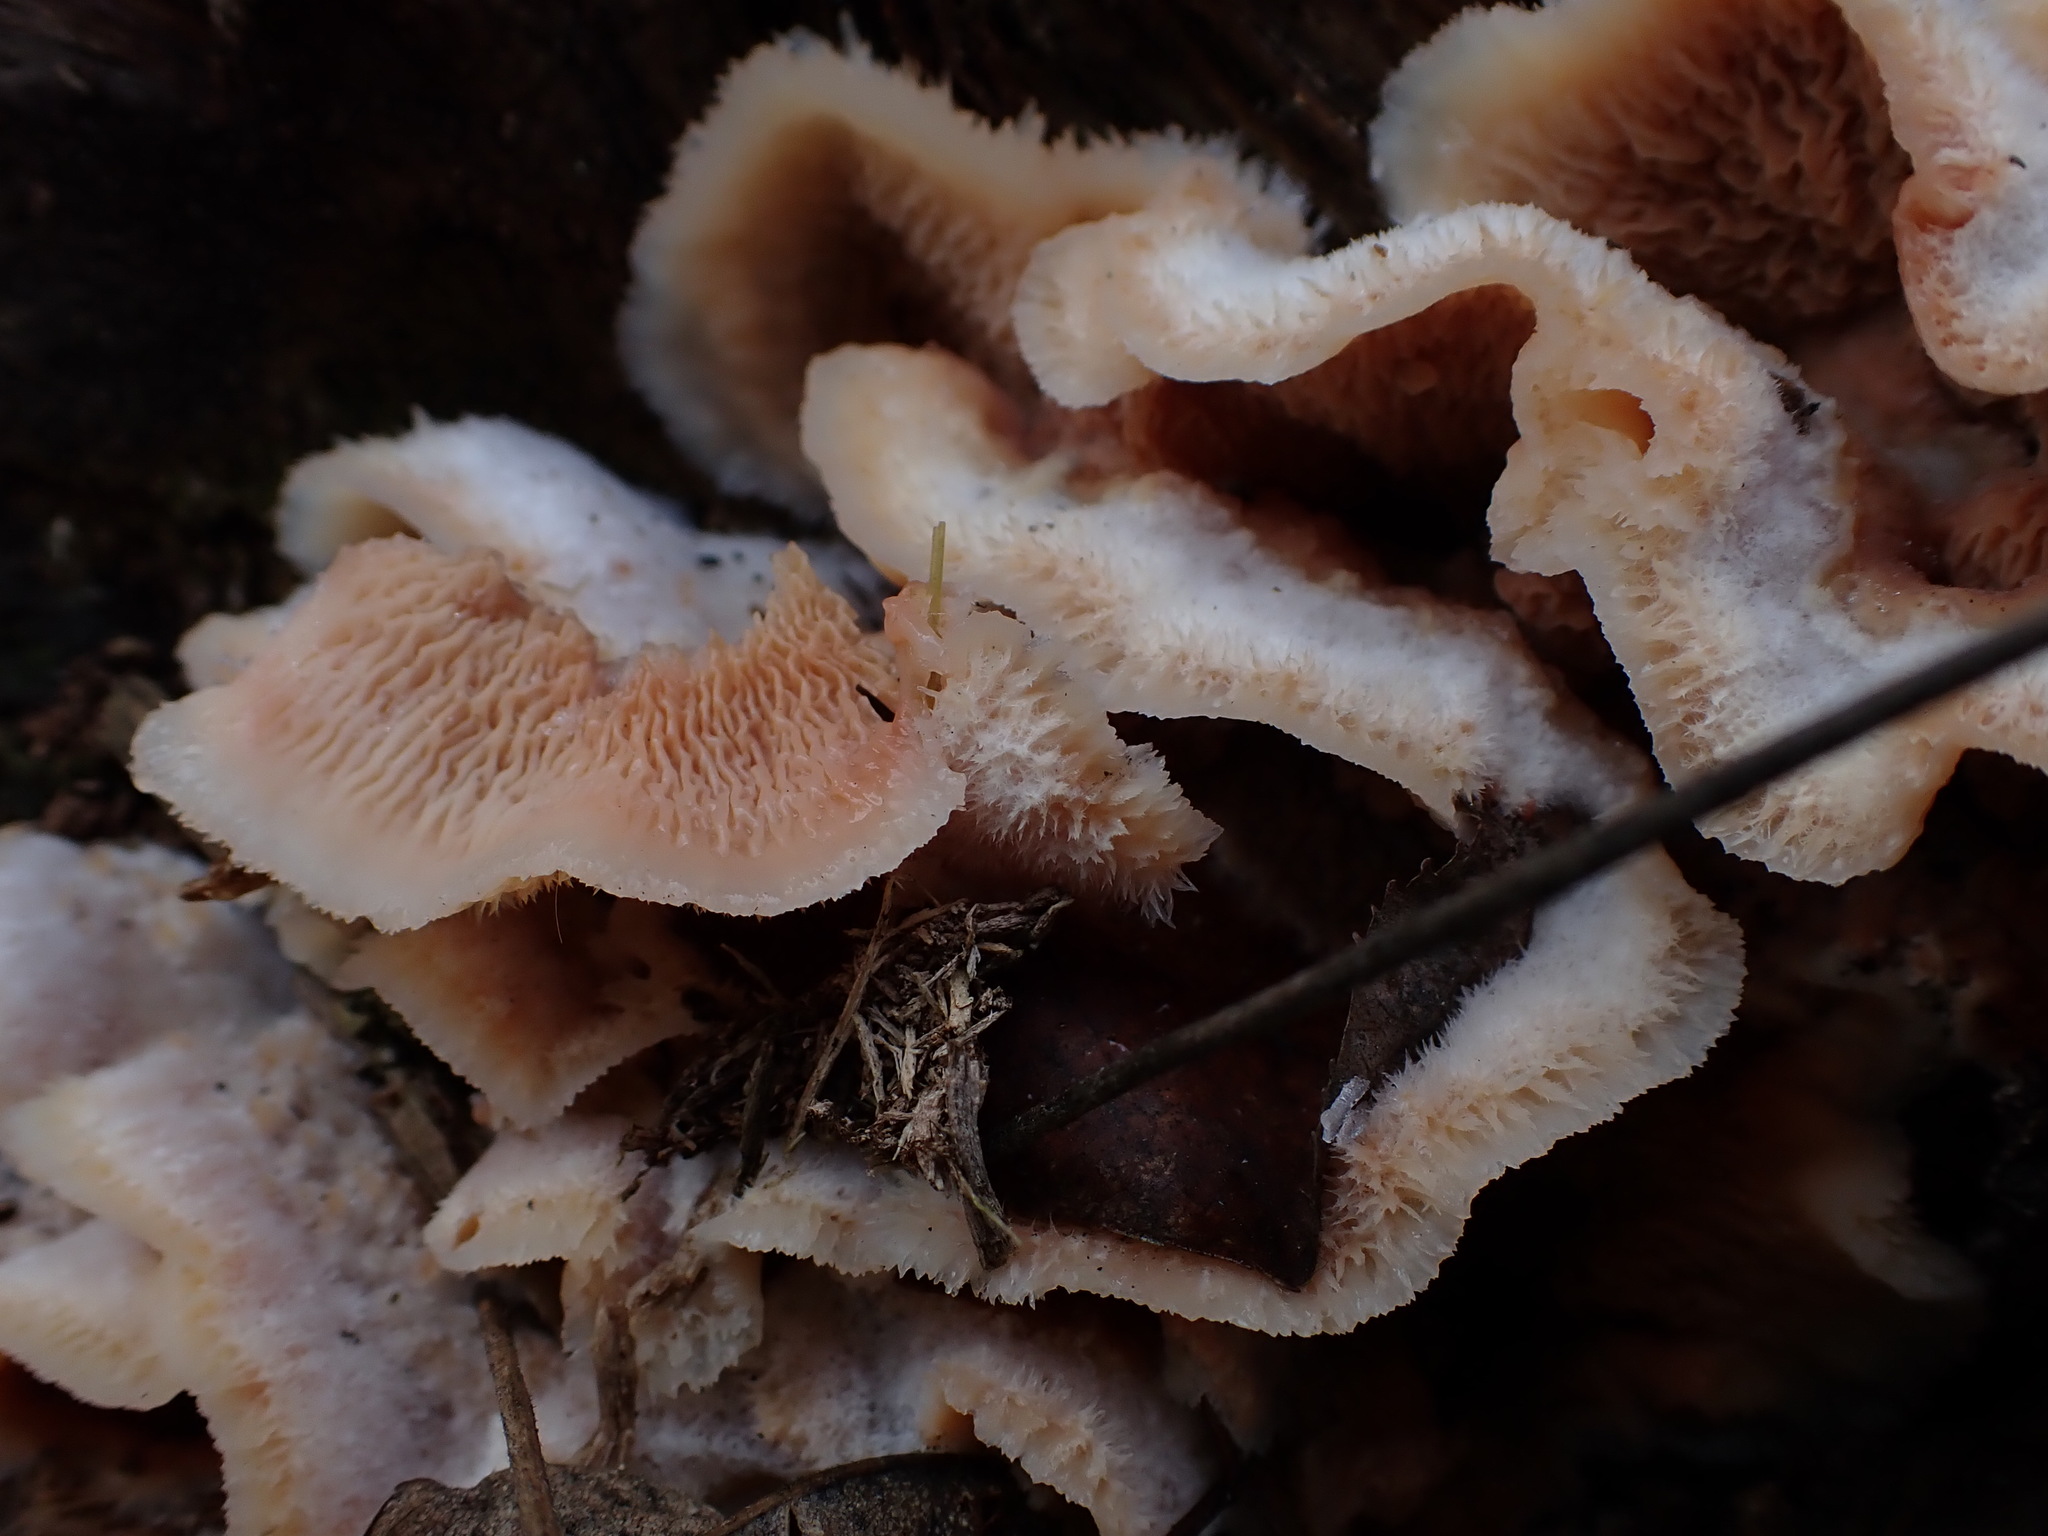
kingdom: Fungi
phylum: Basidiomycota
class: Agaricomycetes
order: Polyporales
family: Meruliaceae
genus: Phlebia
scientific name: Phlebia tremellosa
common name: Jelly rot
